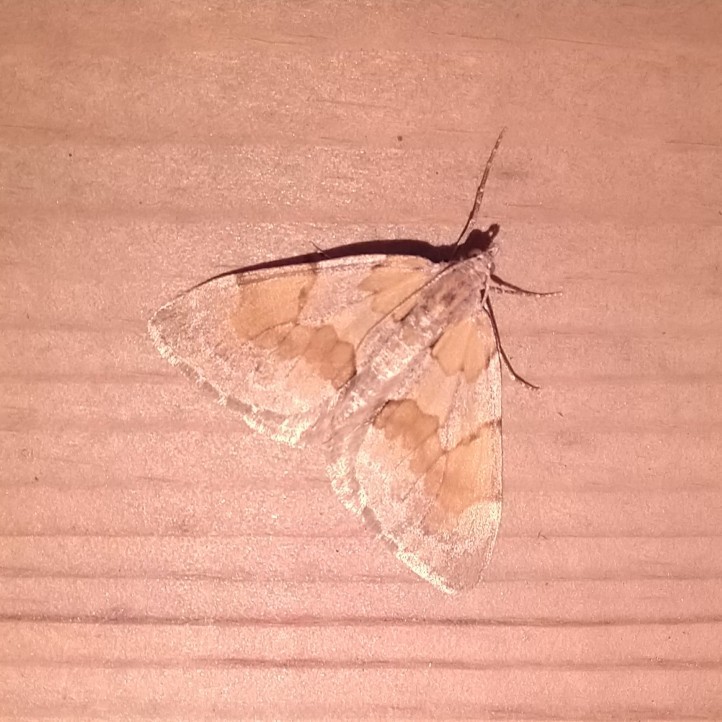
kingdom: Animalia
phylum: Arthropoda
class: Insecta
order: Lepidoptera
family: Geometridae
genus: Pennithera
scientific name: Pennithera firmata
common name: Pine carpet
